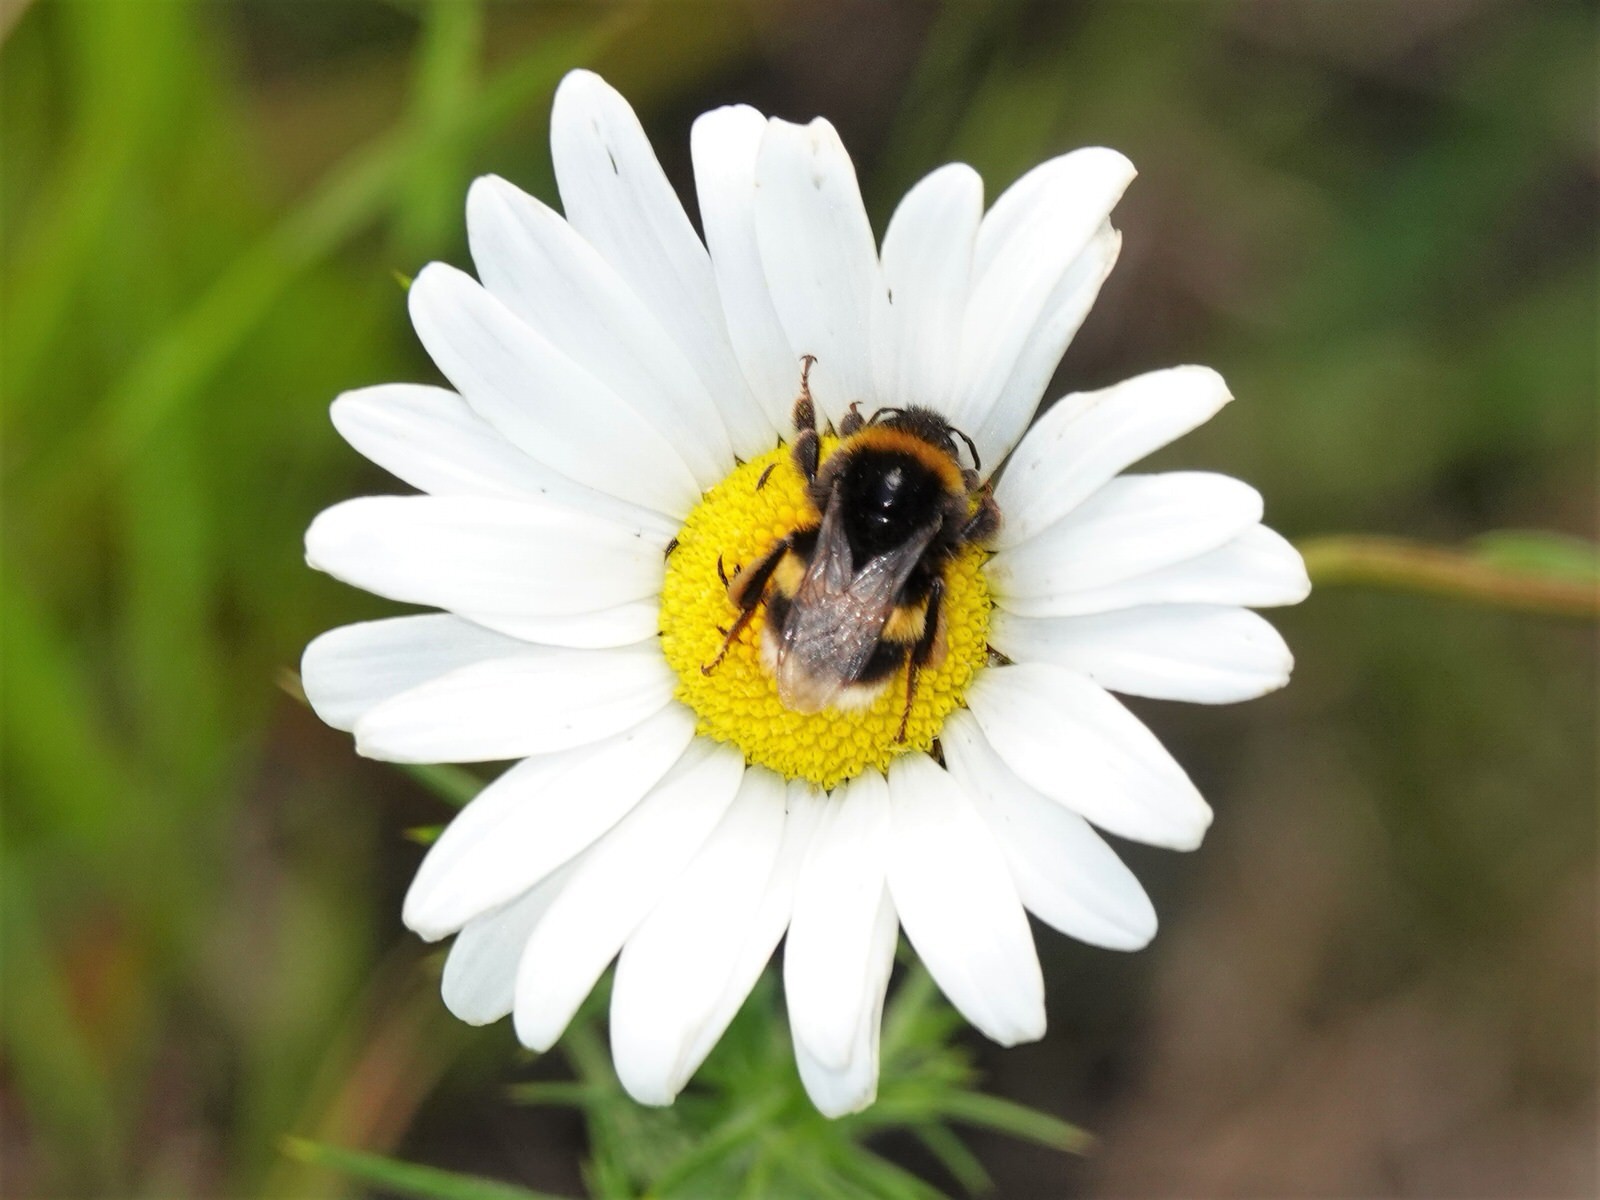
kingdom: Animalia
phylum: Arthropoda
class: Insecta
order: Hymenoptera
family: Apidae
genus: Bombus
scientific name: Bombus terrestris
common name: Buff-tailed bumblebee
